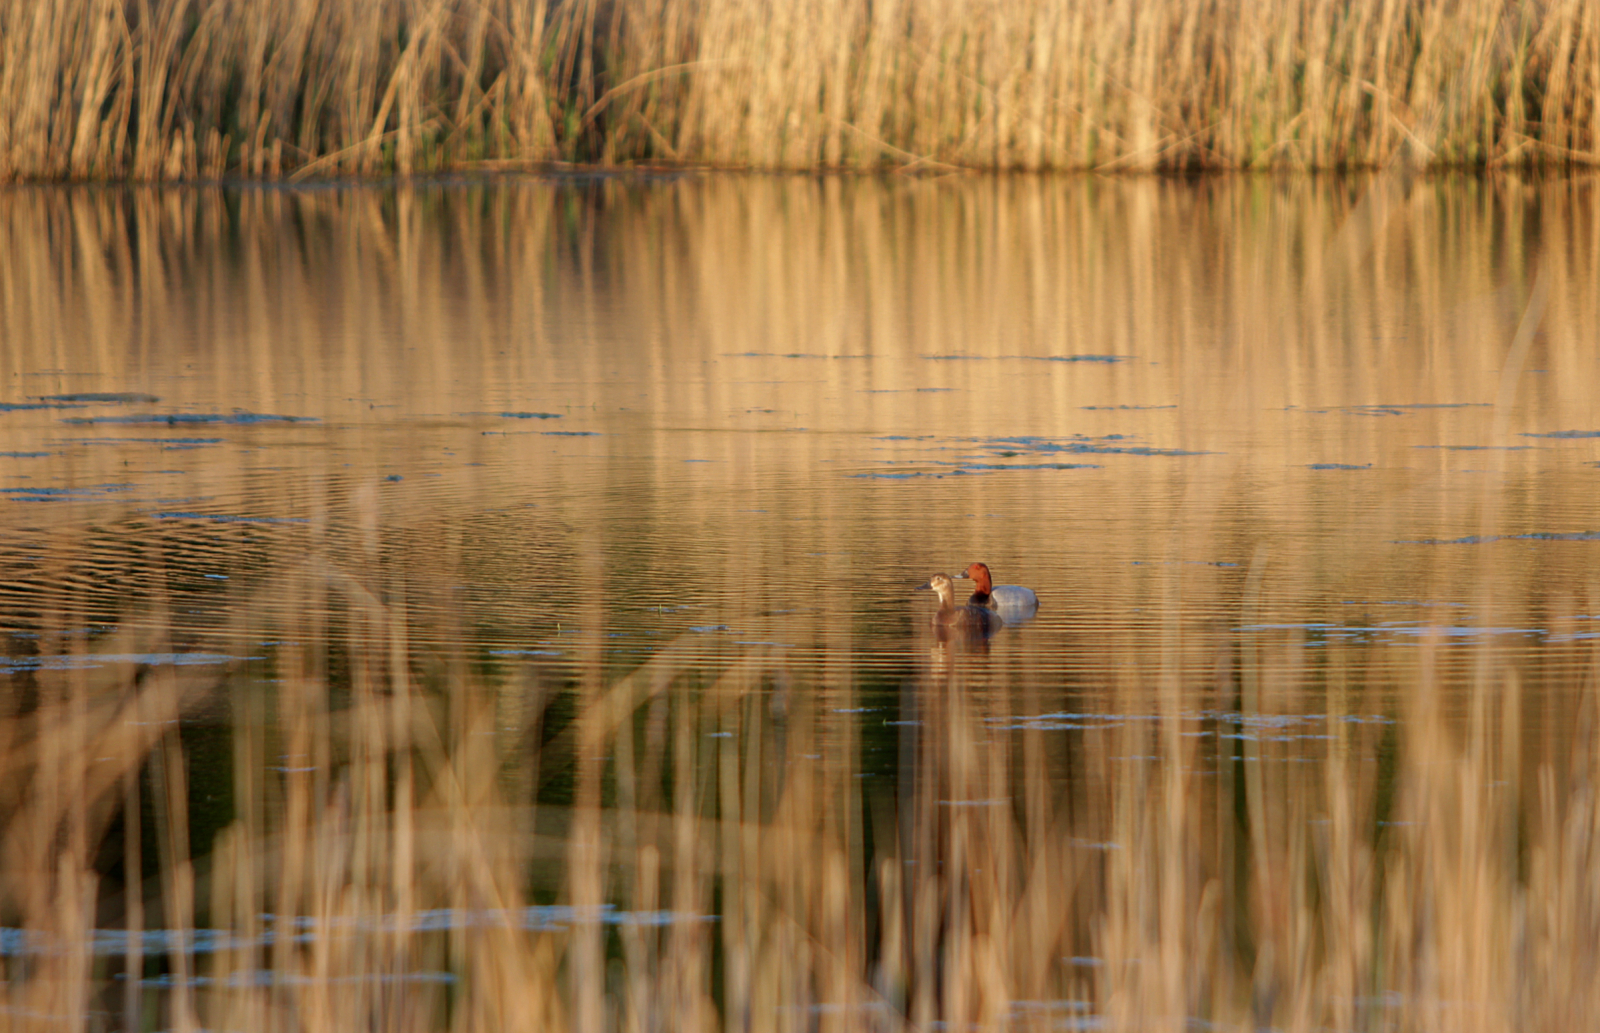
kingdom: Animalia
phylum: Chordata
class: Aves
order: Anseriformes
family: Anatidae
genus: Aythya
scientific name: Aythya ferina
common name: Common pochard
